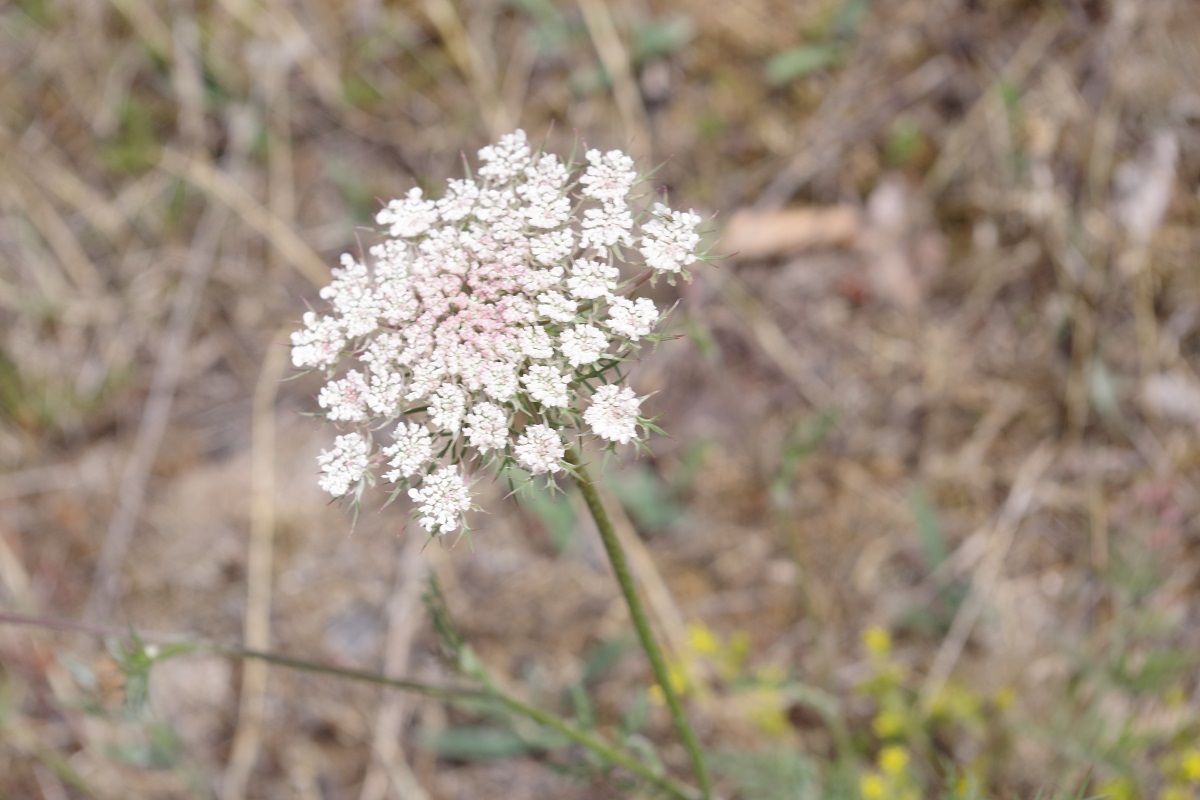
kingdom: Plantae
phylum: Tracheophyta
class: Magnoliopsida
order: Apiales
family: Apiaceae
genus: Daucus
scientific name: Daucus carota
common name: Wild carrot
